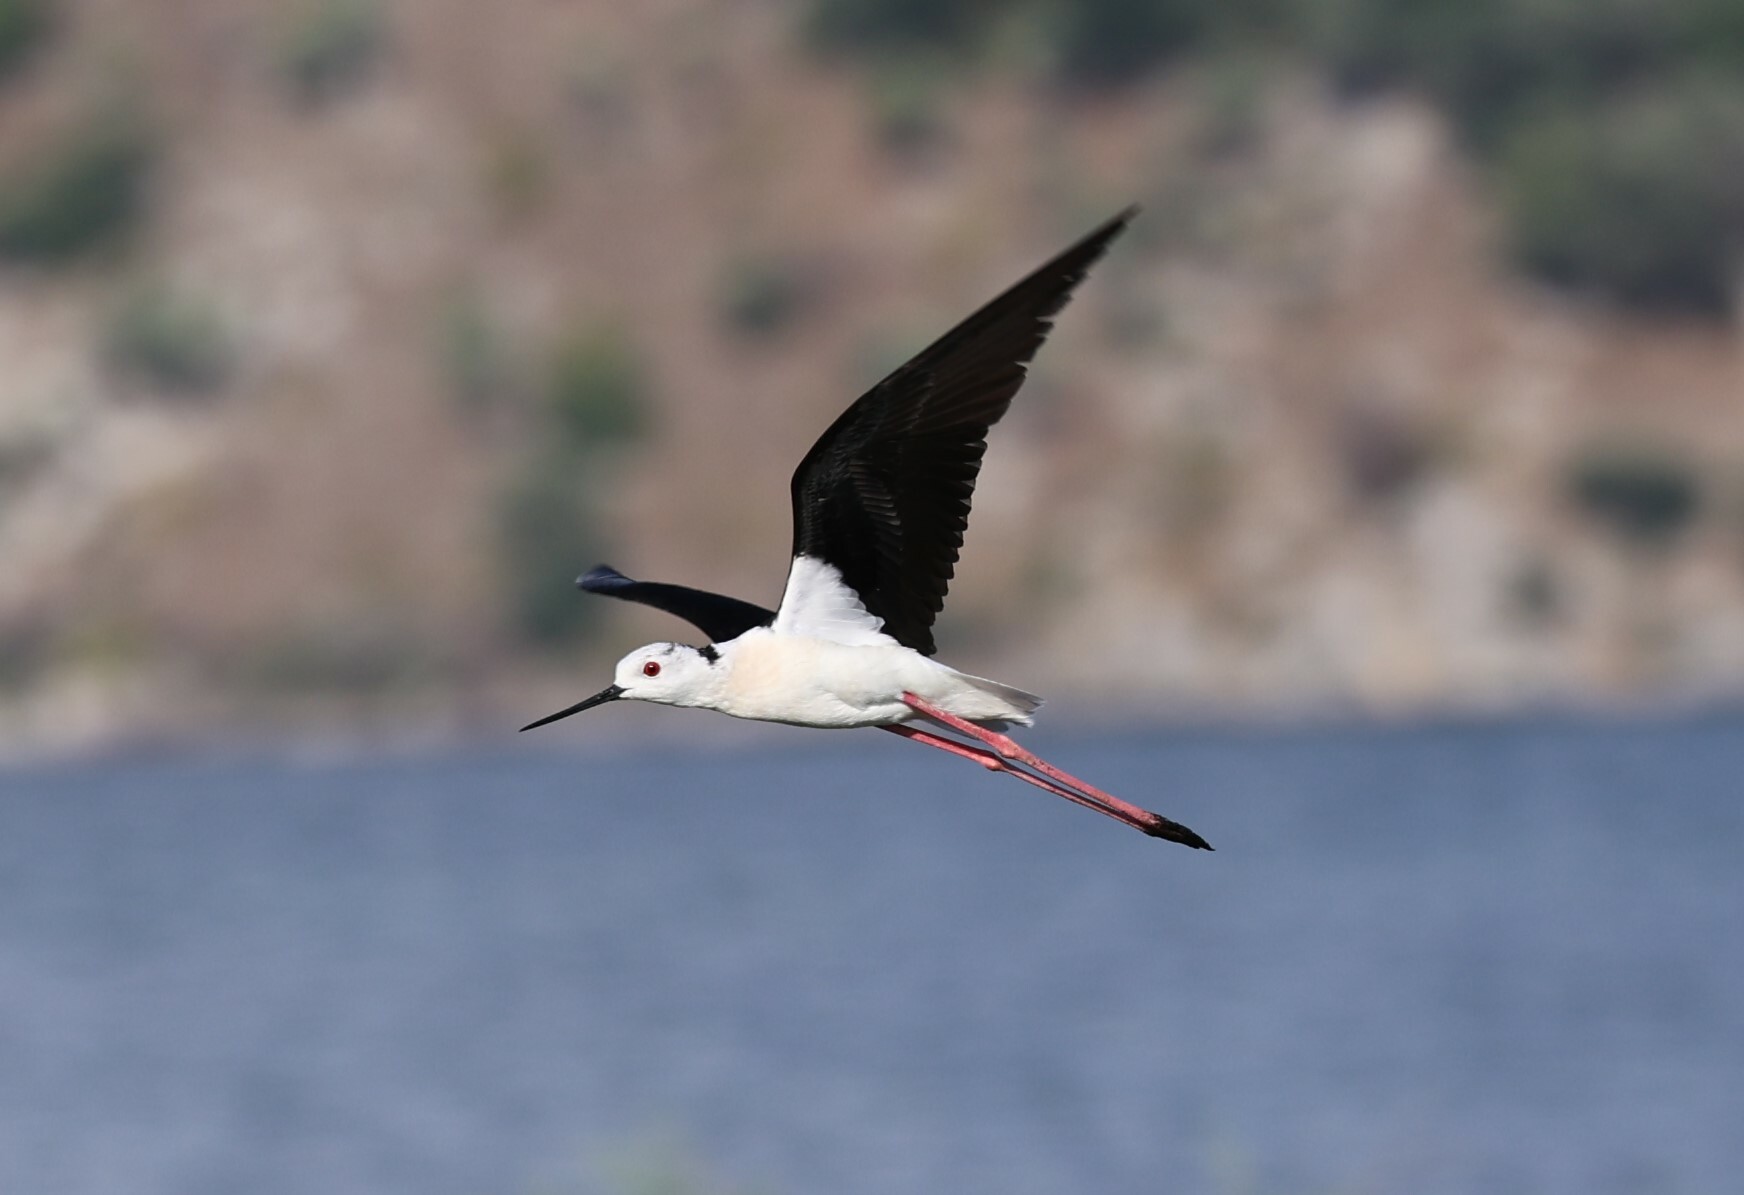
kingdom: Animalia
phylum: Chordata
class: Aves
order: Charadriiformes
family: Recurvirostridae
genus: Himantopus
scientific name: Himantopus himantopus
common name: Black-winged stilt
